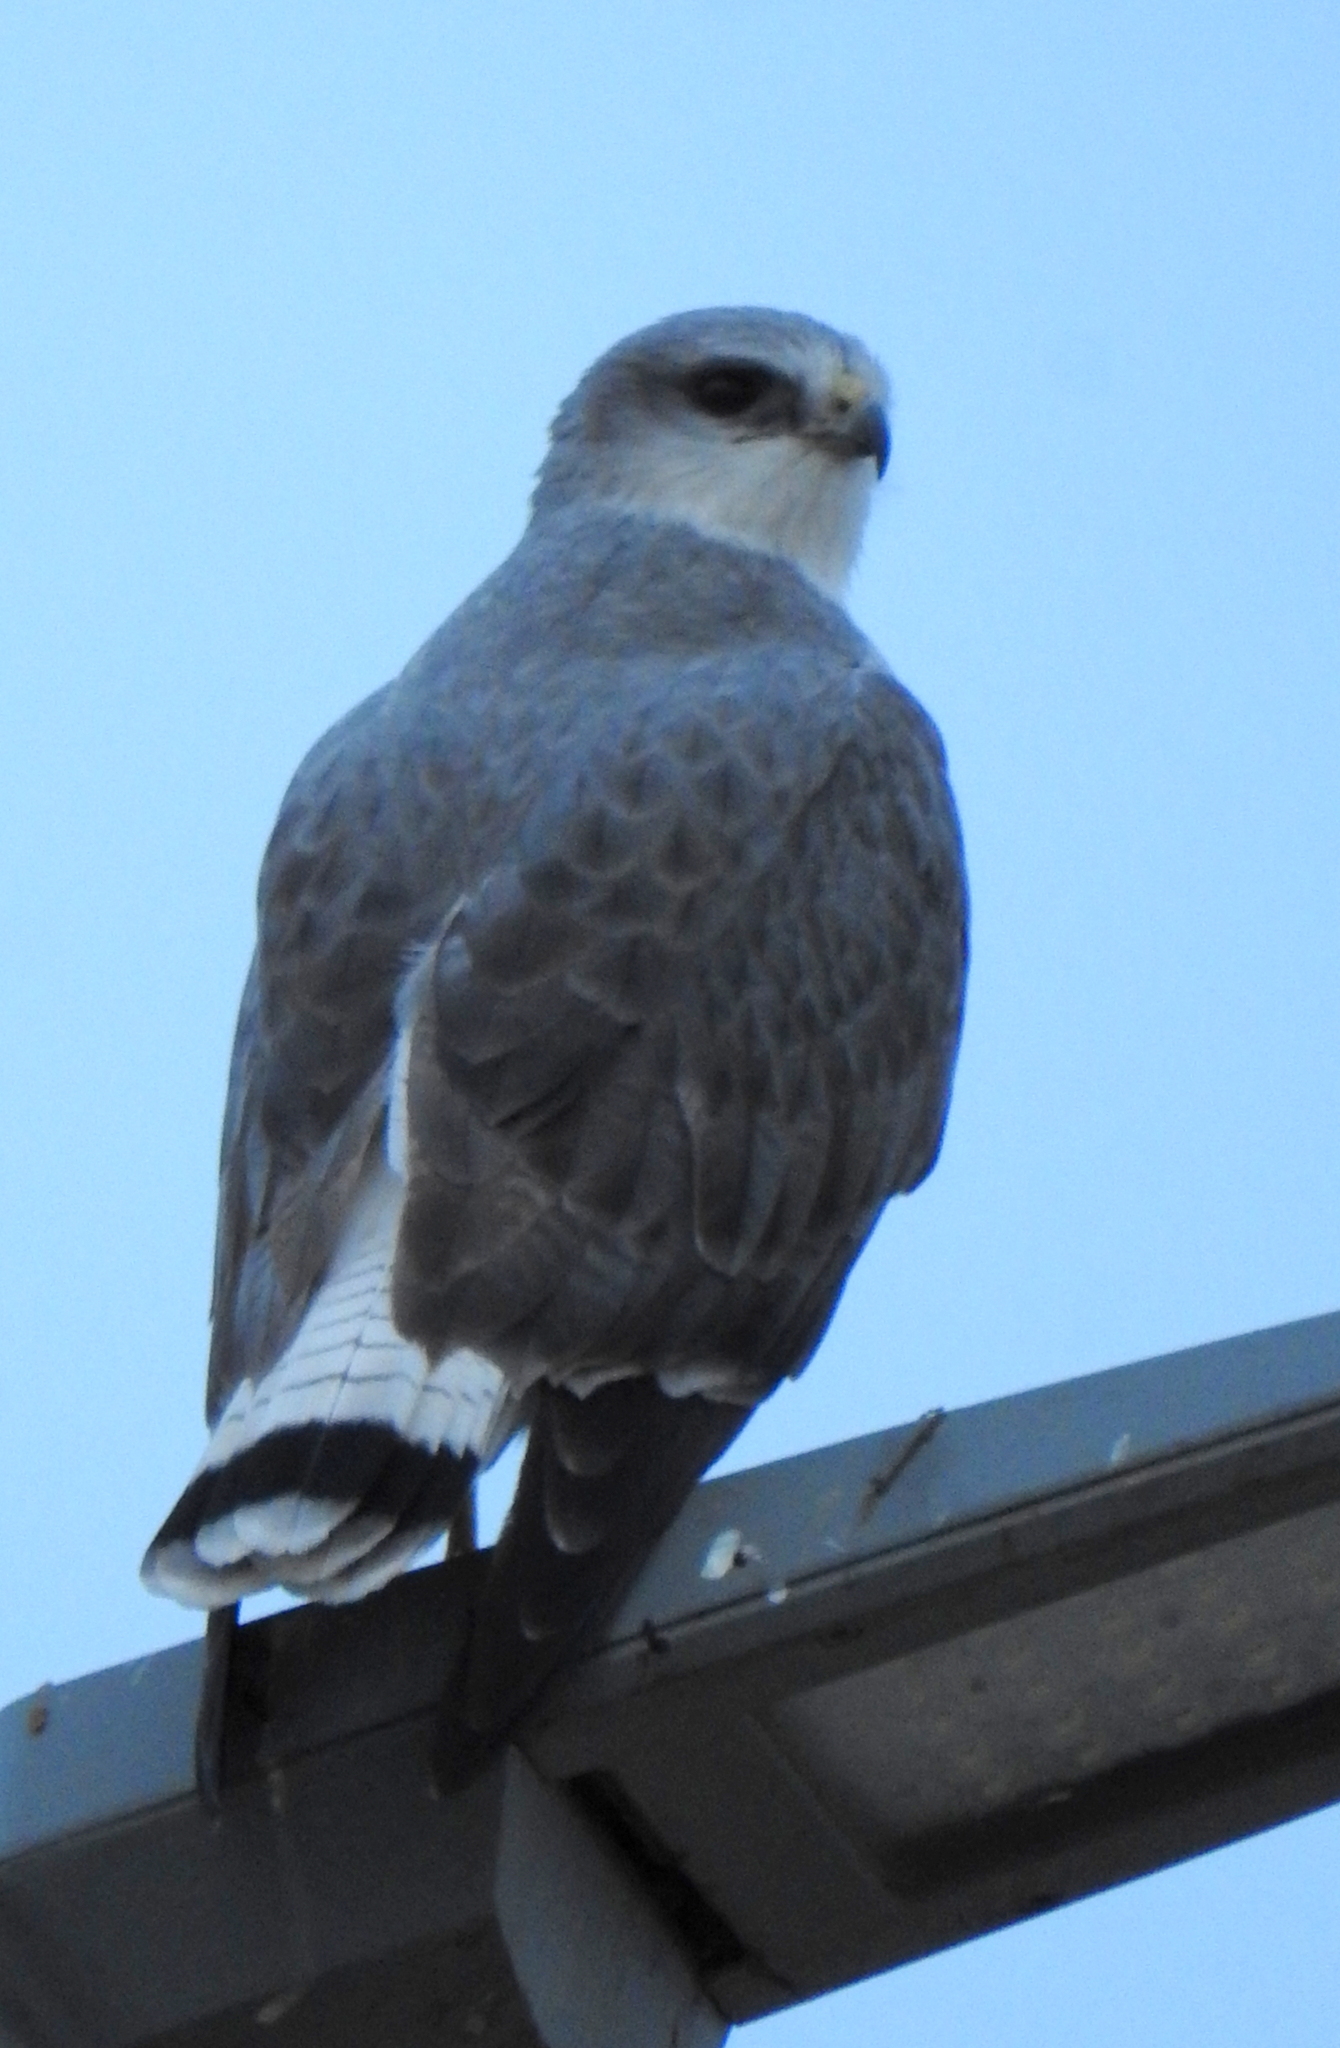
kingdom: Animalia
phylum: Chordata
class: Aves
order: Accipitriformes
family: Accipitridae
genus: Buteo
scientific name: Buteo polyosoma
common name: Variable hawk
